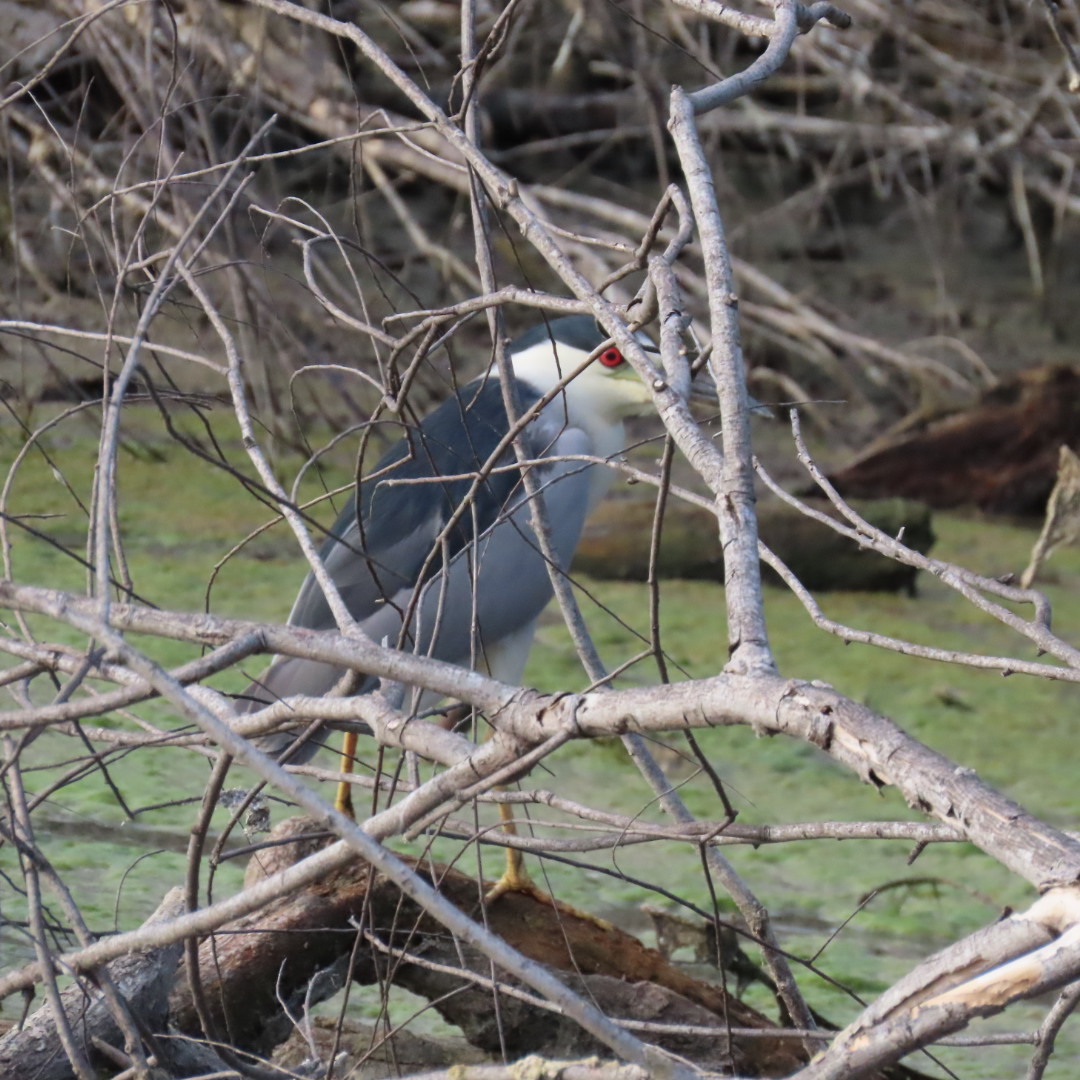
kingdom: Animalia
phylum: Chordata
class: Aves
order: Pelecaniformes
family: Ardeidae
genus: Nycticorax
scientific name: Nycticorax nycticorax
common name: Black-crowned night heron
